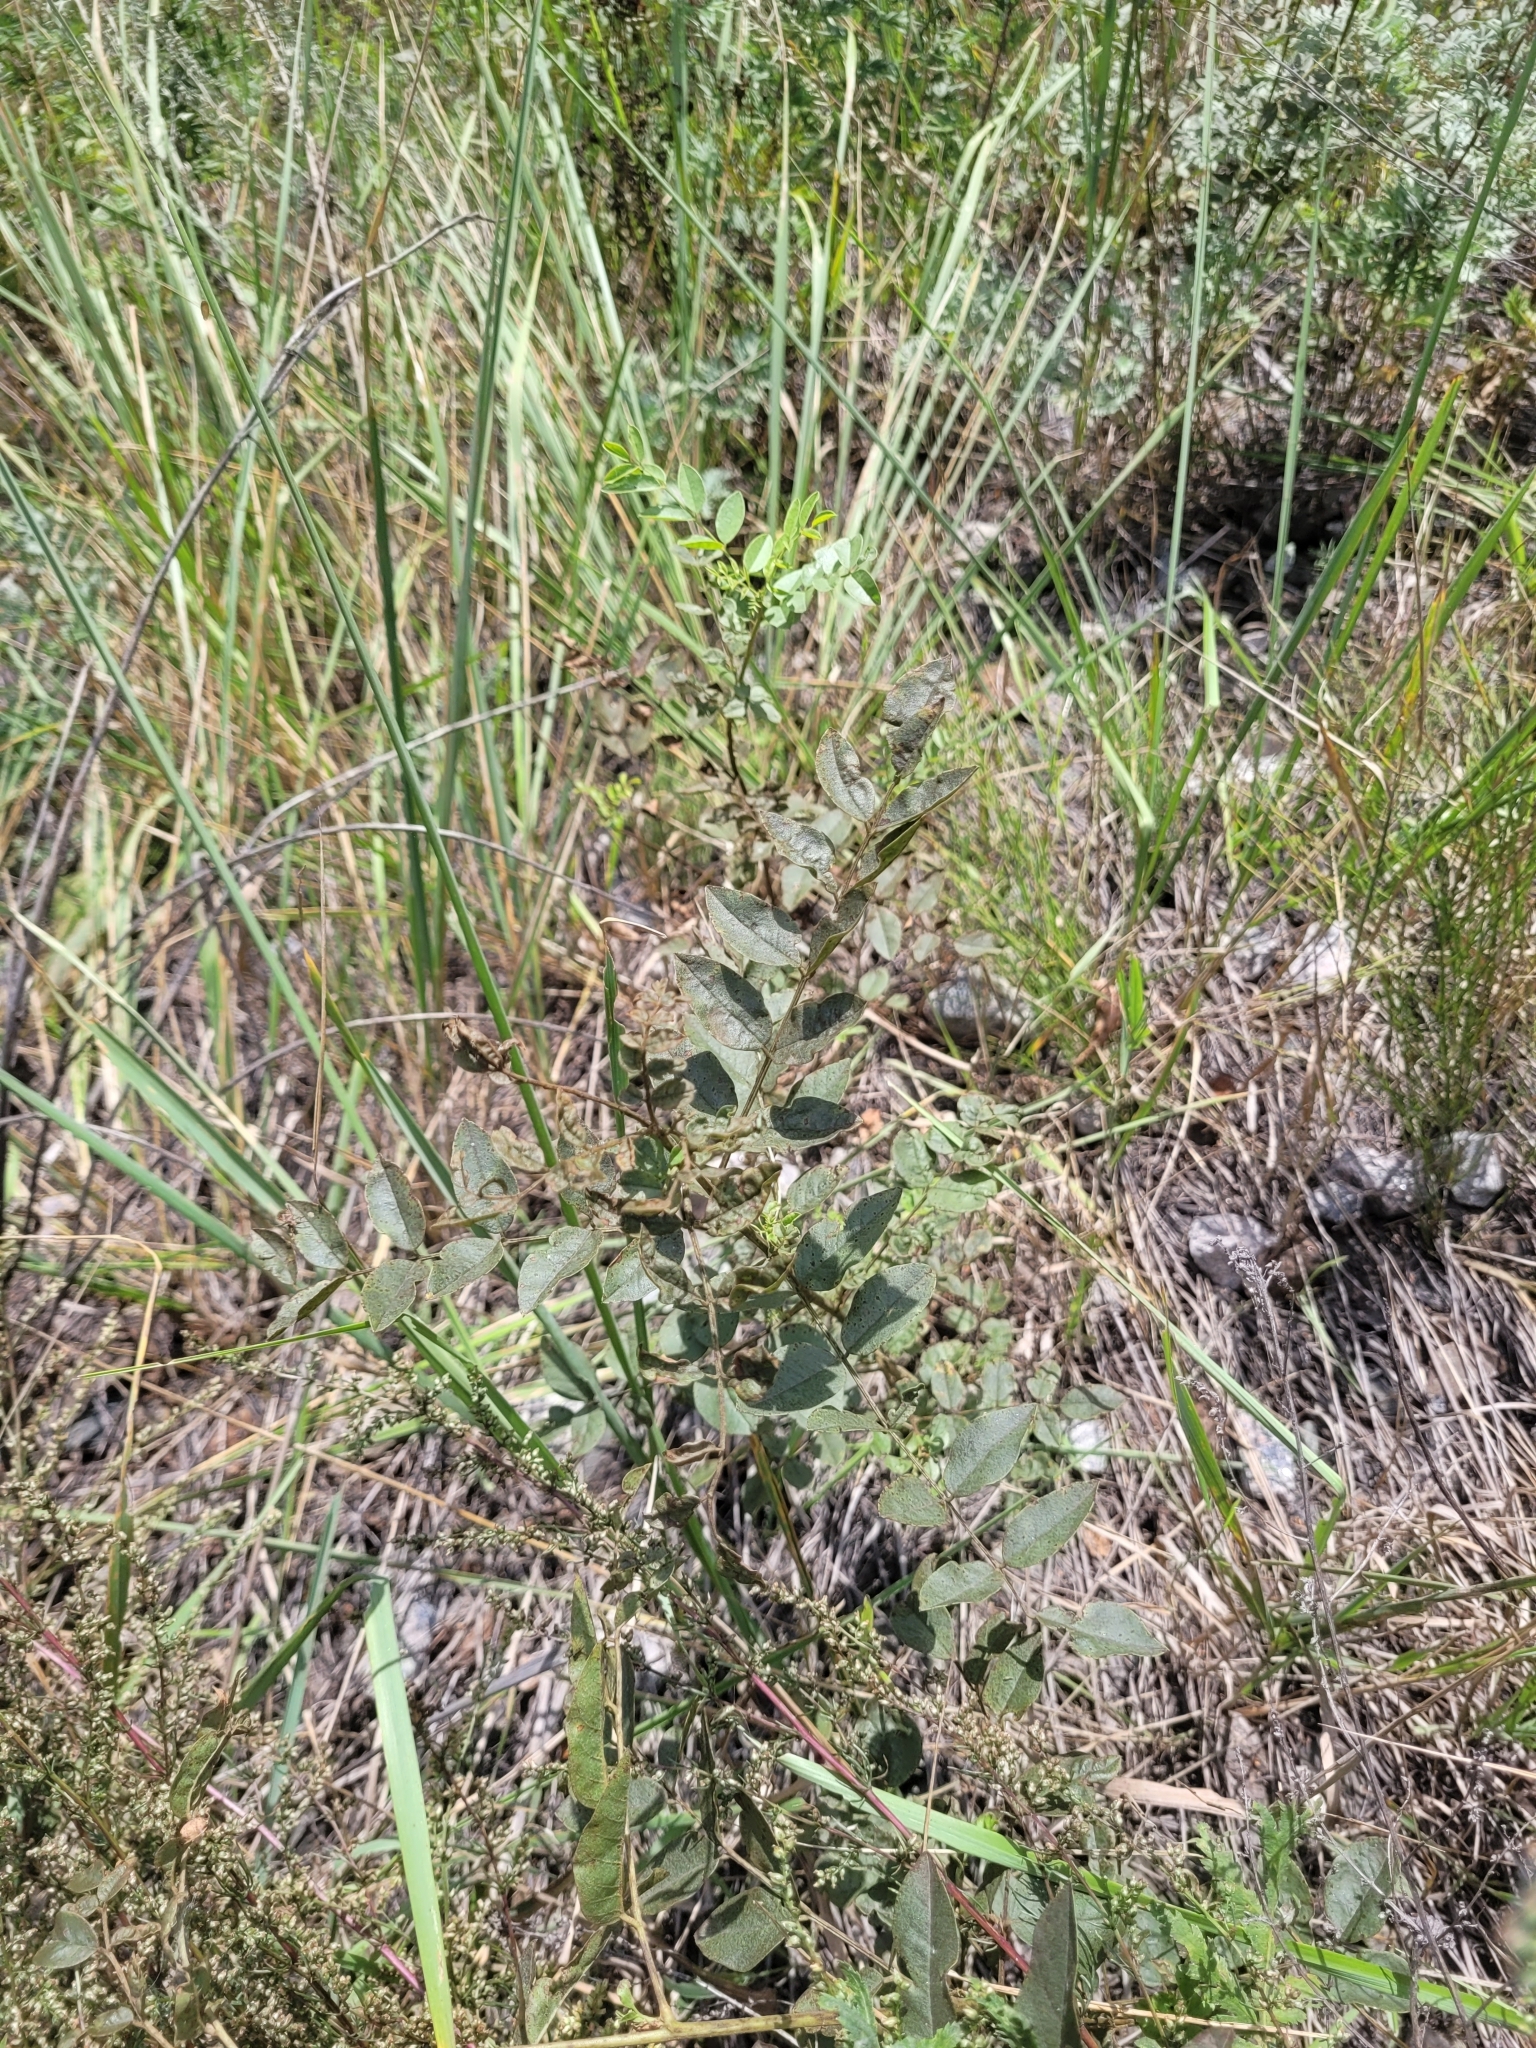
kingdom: Plantae
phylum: Tracheophyta
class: Magnoliopsida
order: Fabales
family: Fabaceae
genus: Glycyrrhiza
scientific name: Glycyrrhiza glabra
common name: Liquorice
